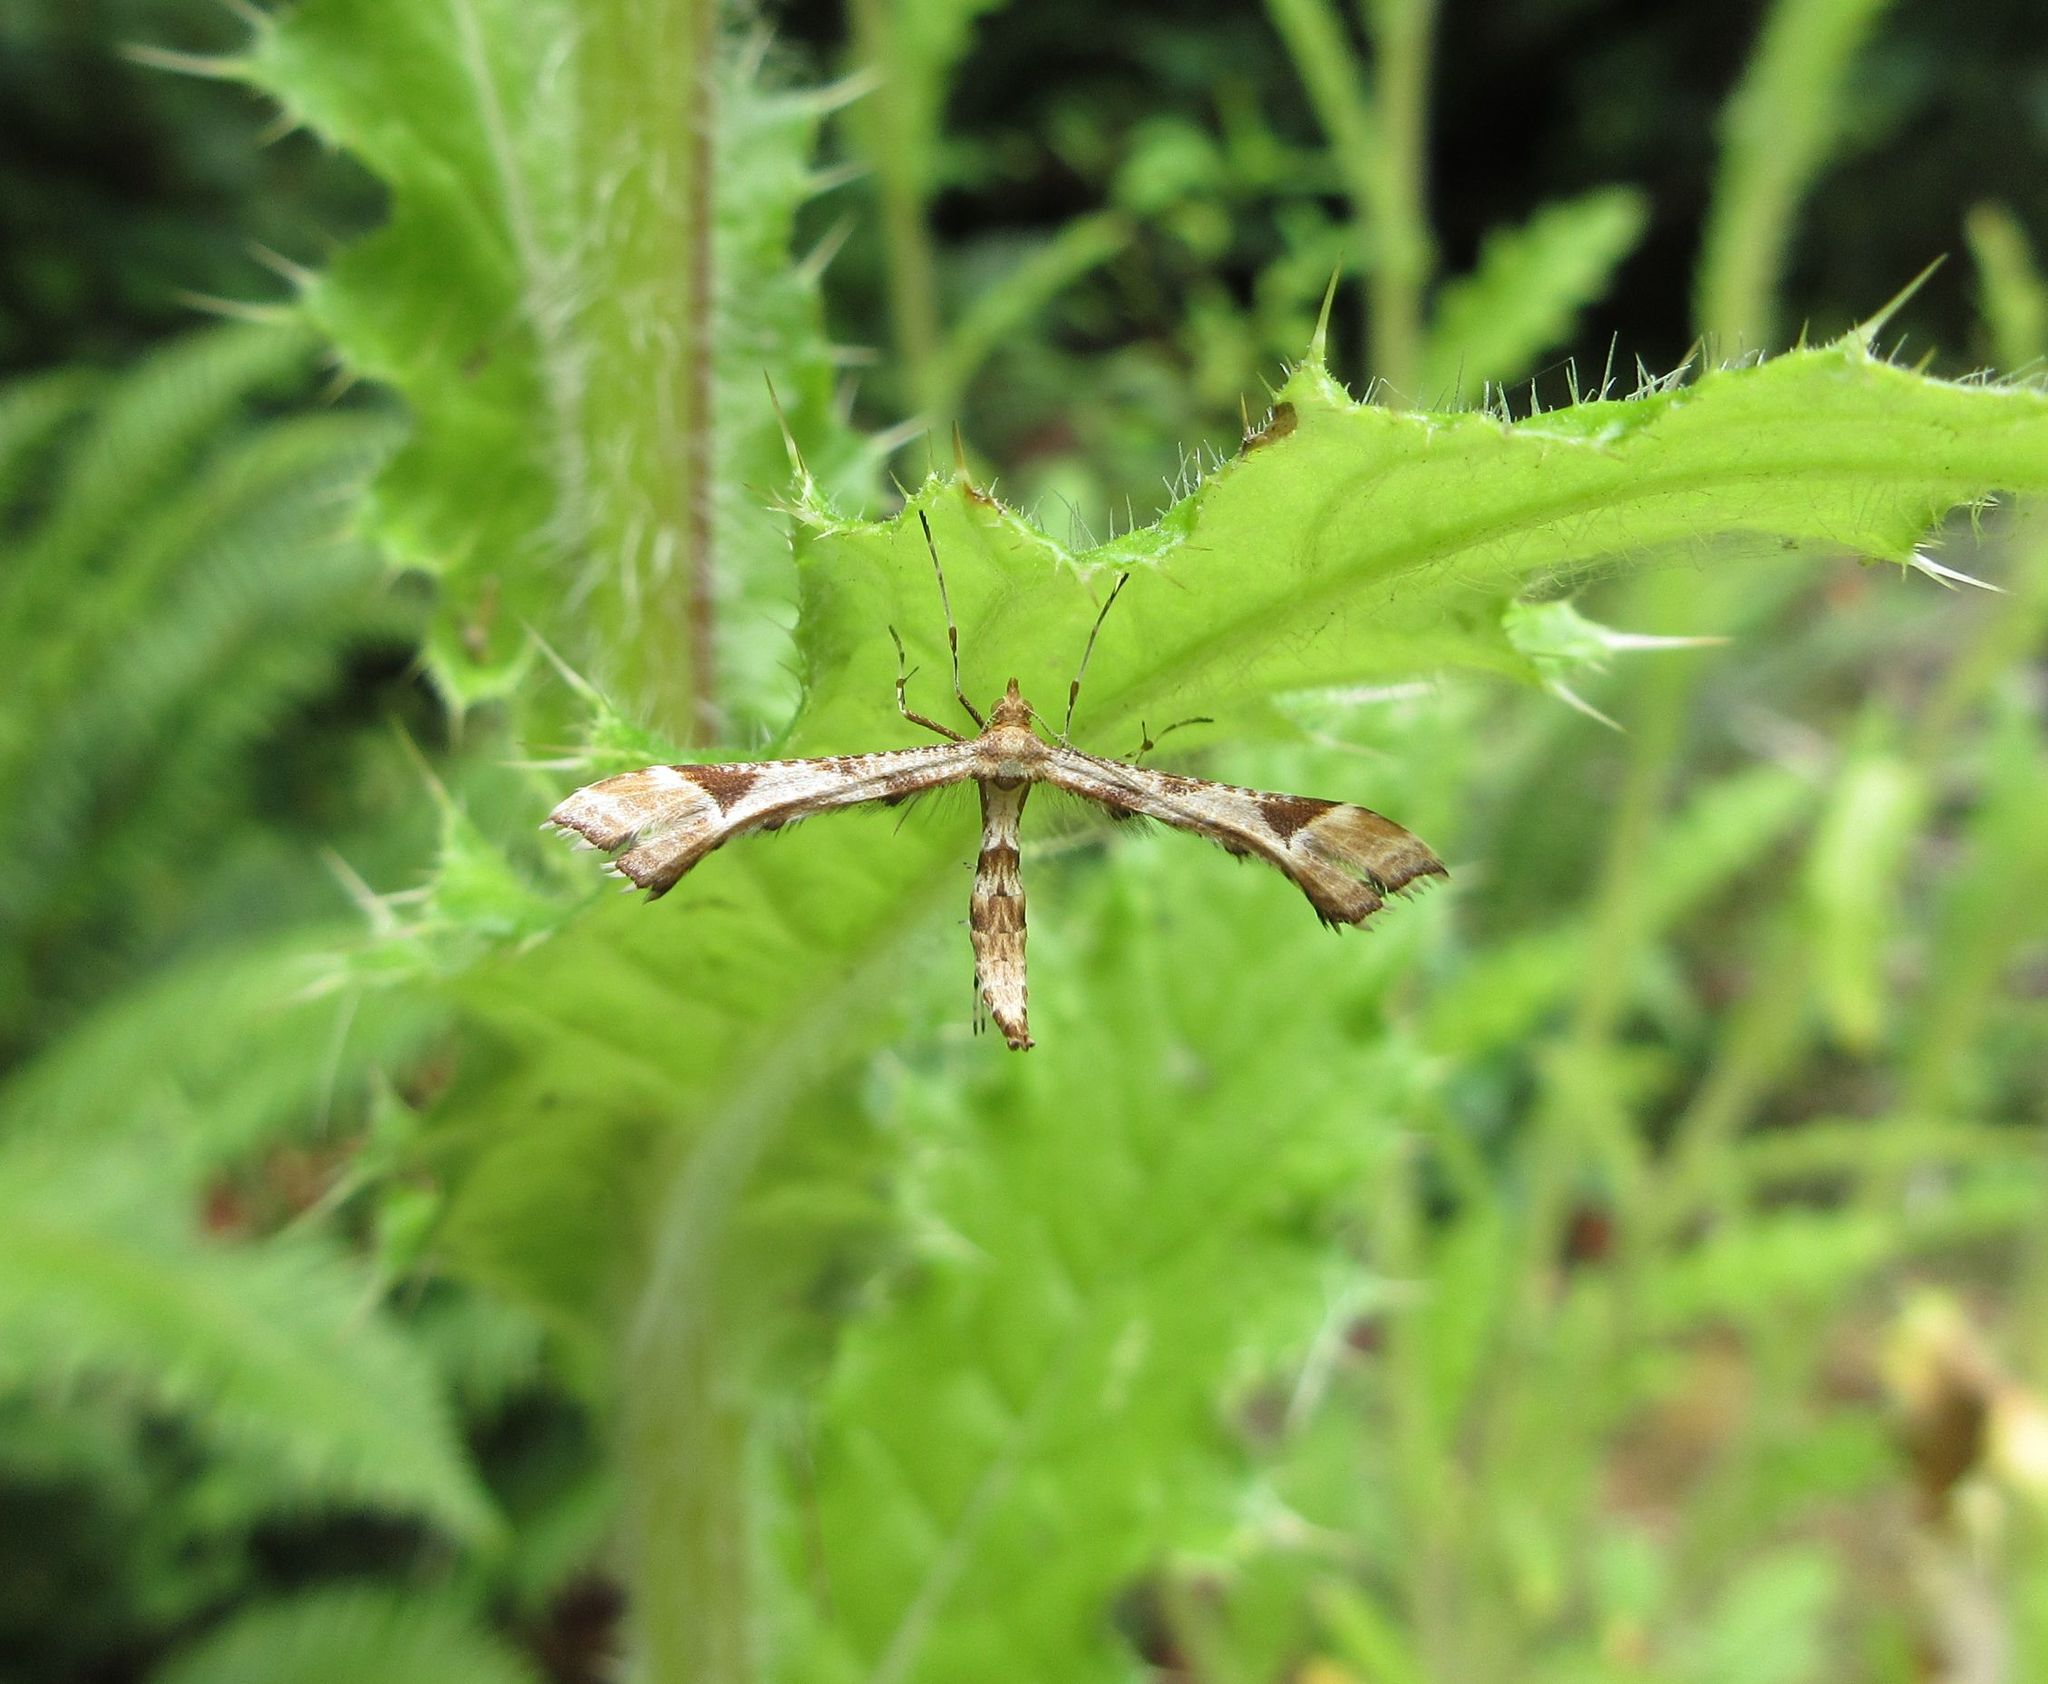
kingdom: Animalia
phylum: Arthropoda
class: Insecta
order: Lepidoptera
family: Pterophoridae
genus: Platyptilia
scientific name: Platyptilia carduidactylus
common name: Artichoke plume moth
